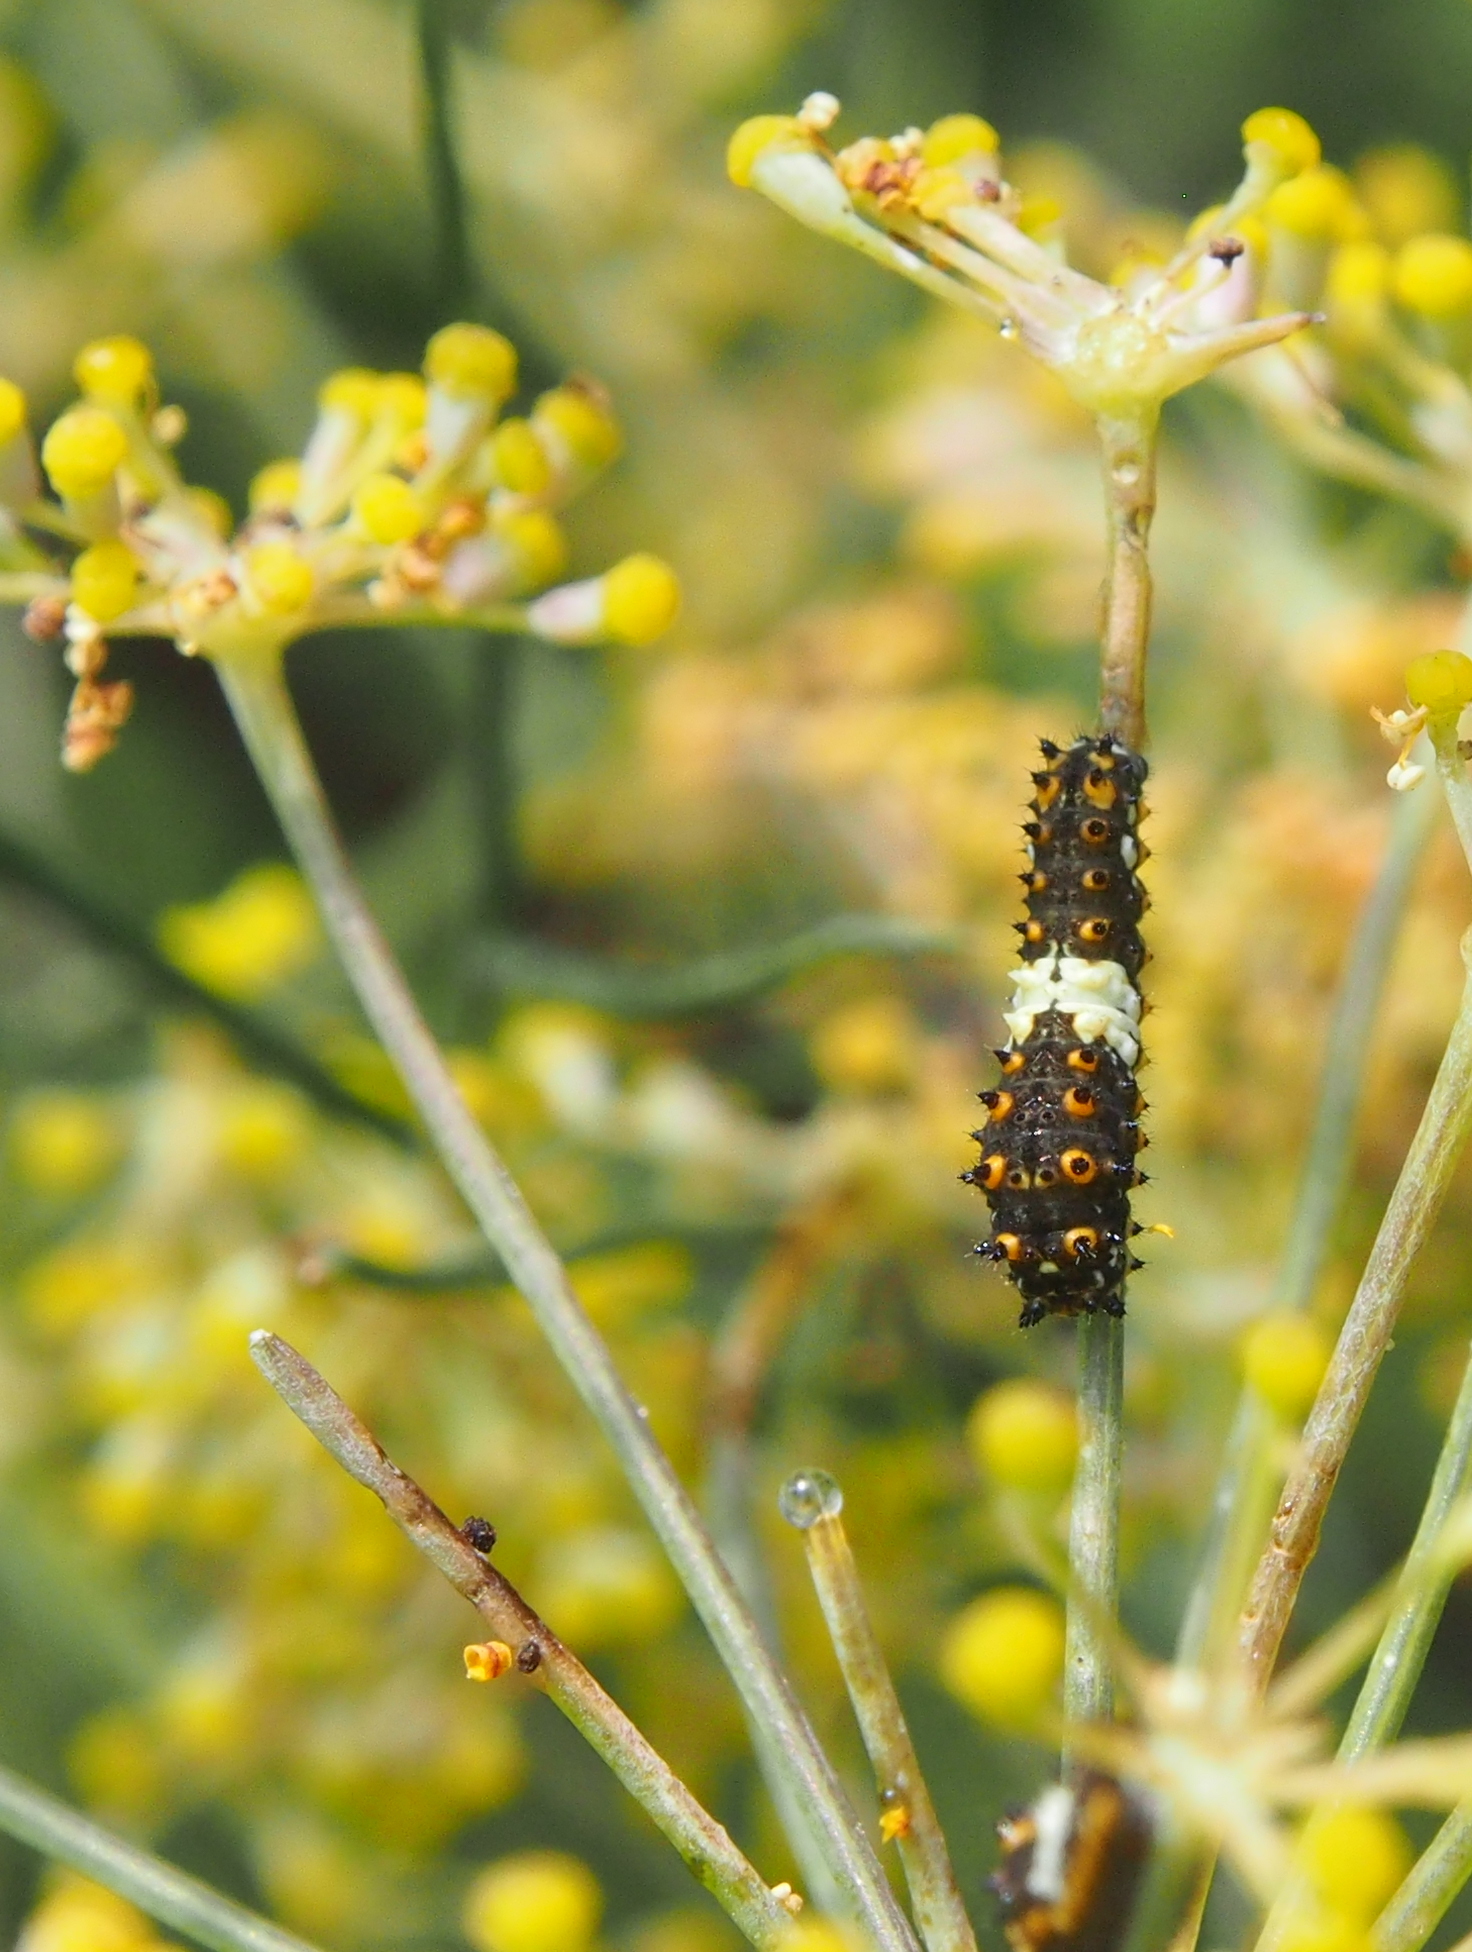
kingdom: Animalia
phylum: Arthropoda
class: Insecta
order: Lepidoptera
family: Papilionidae
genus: Papilio
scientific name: Papilio polyxenes
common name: Black swallowtail
